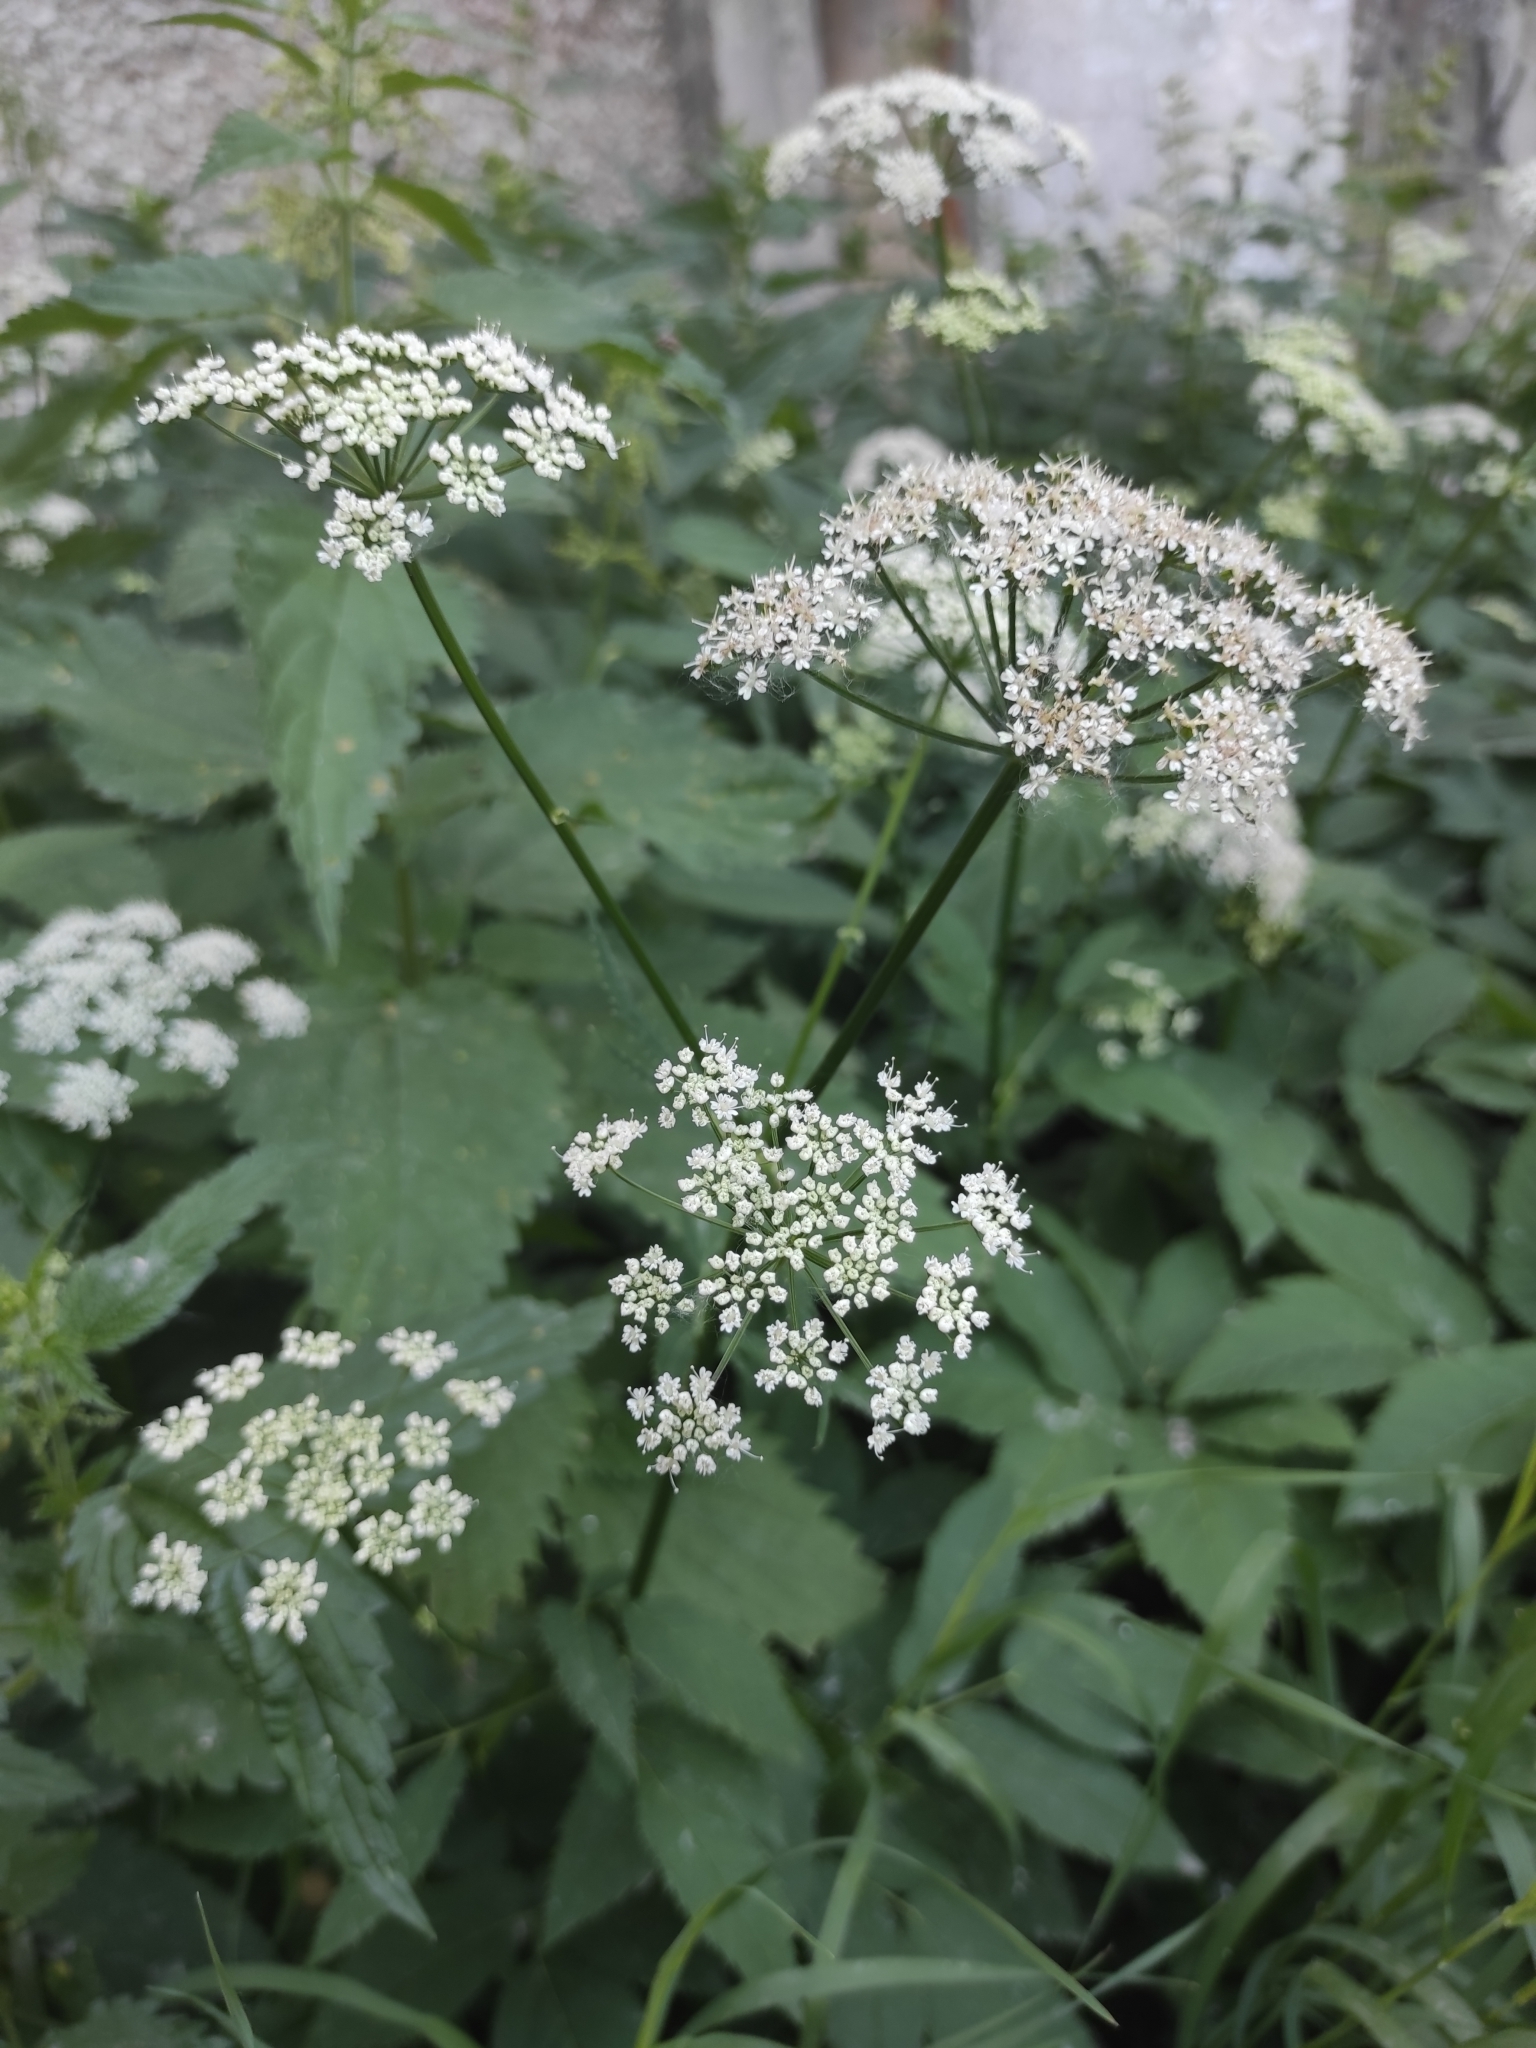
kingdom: Plantae
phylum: Tracheophyta
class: Magnoliopsida
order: Apiales
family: Apiaceae
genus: Aegopodium
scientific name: Aegopodium podagraria
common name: Ground-elder
